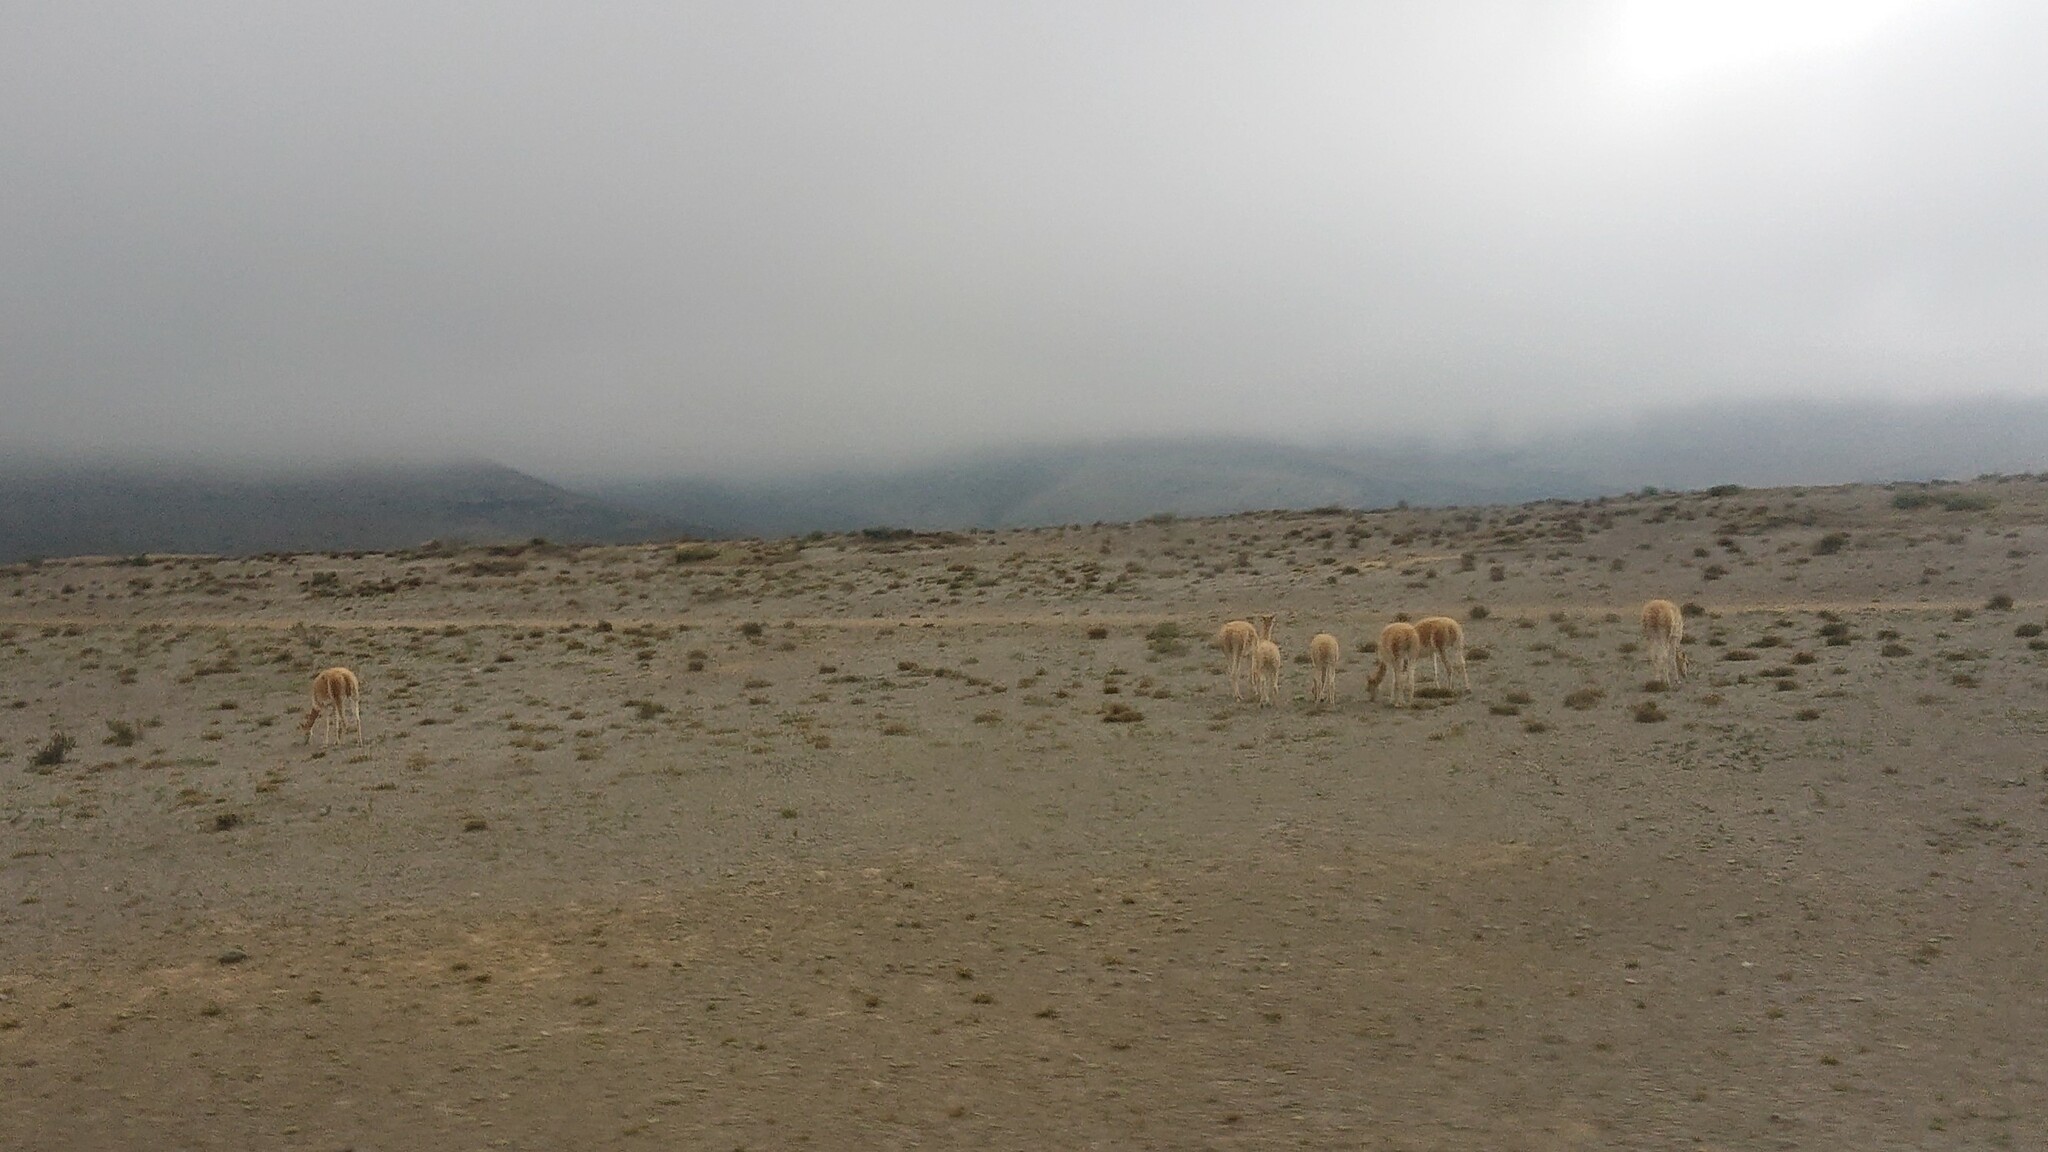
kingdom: Animalia
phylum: Chordata
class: Mammalia
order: Artiodactyla
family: Camelidae
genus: Vicugna
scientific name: Vicugna vicugna
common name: Vicugna
